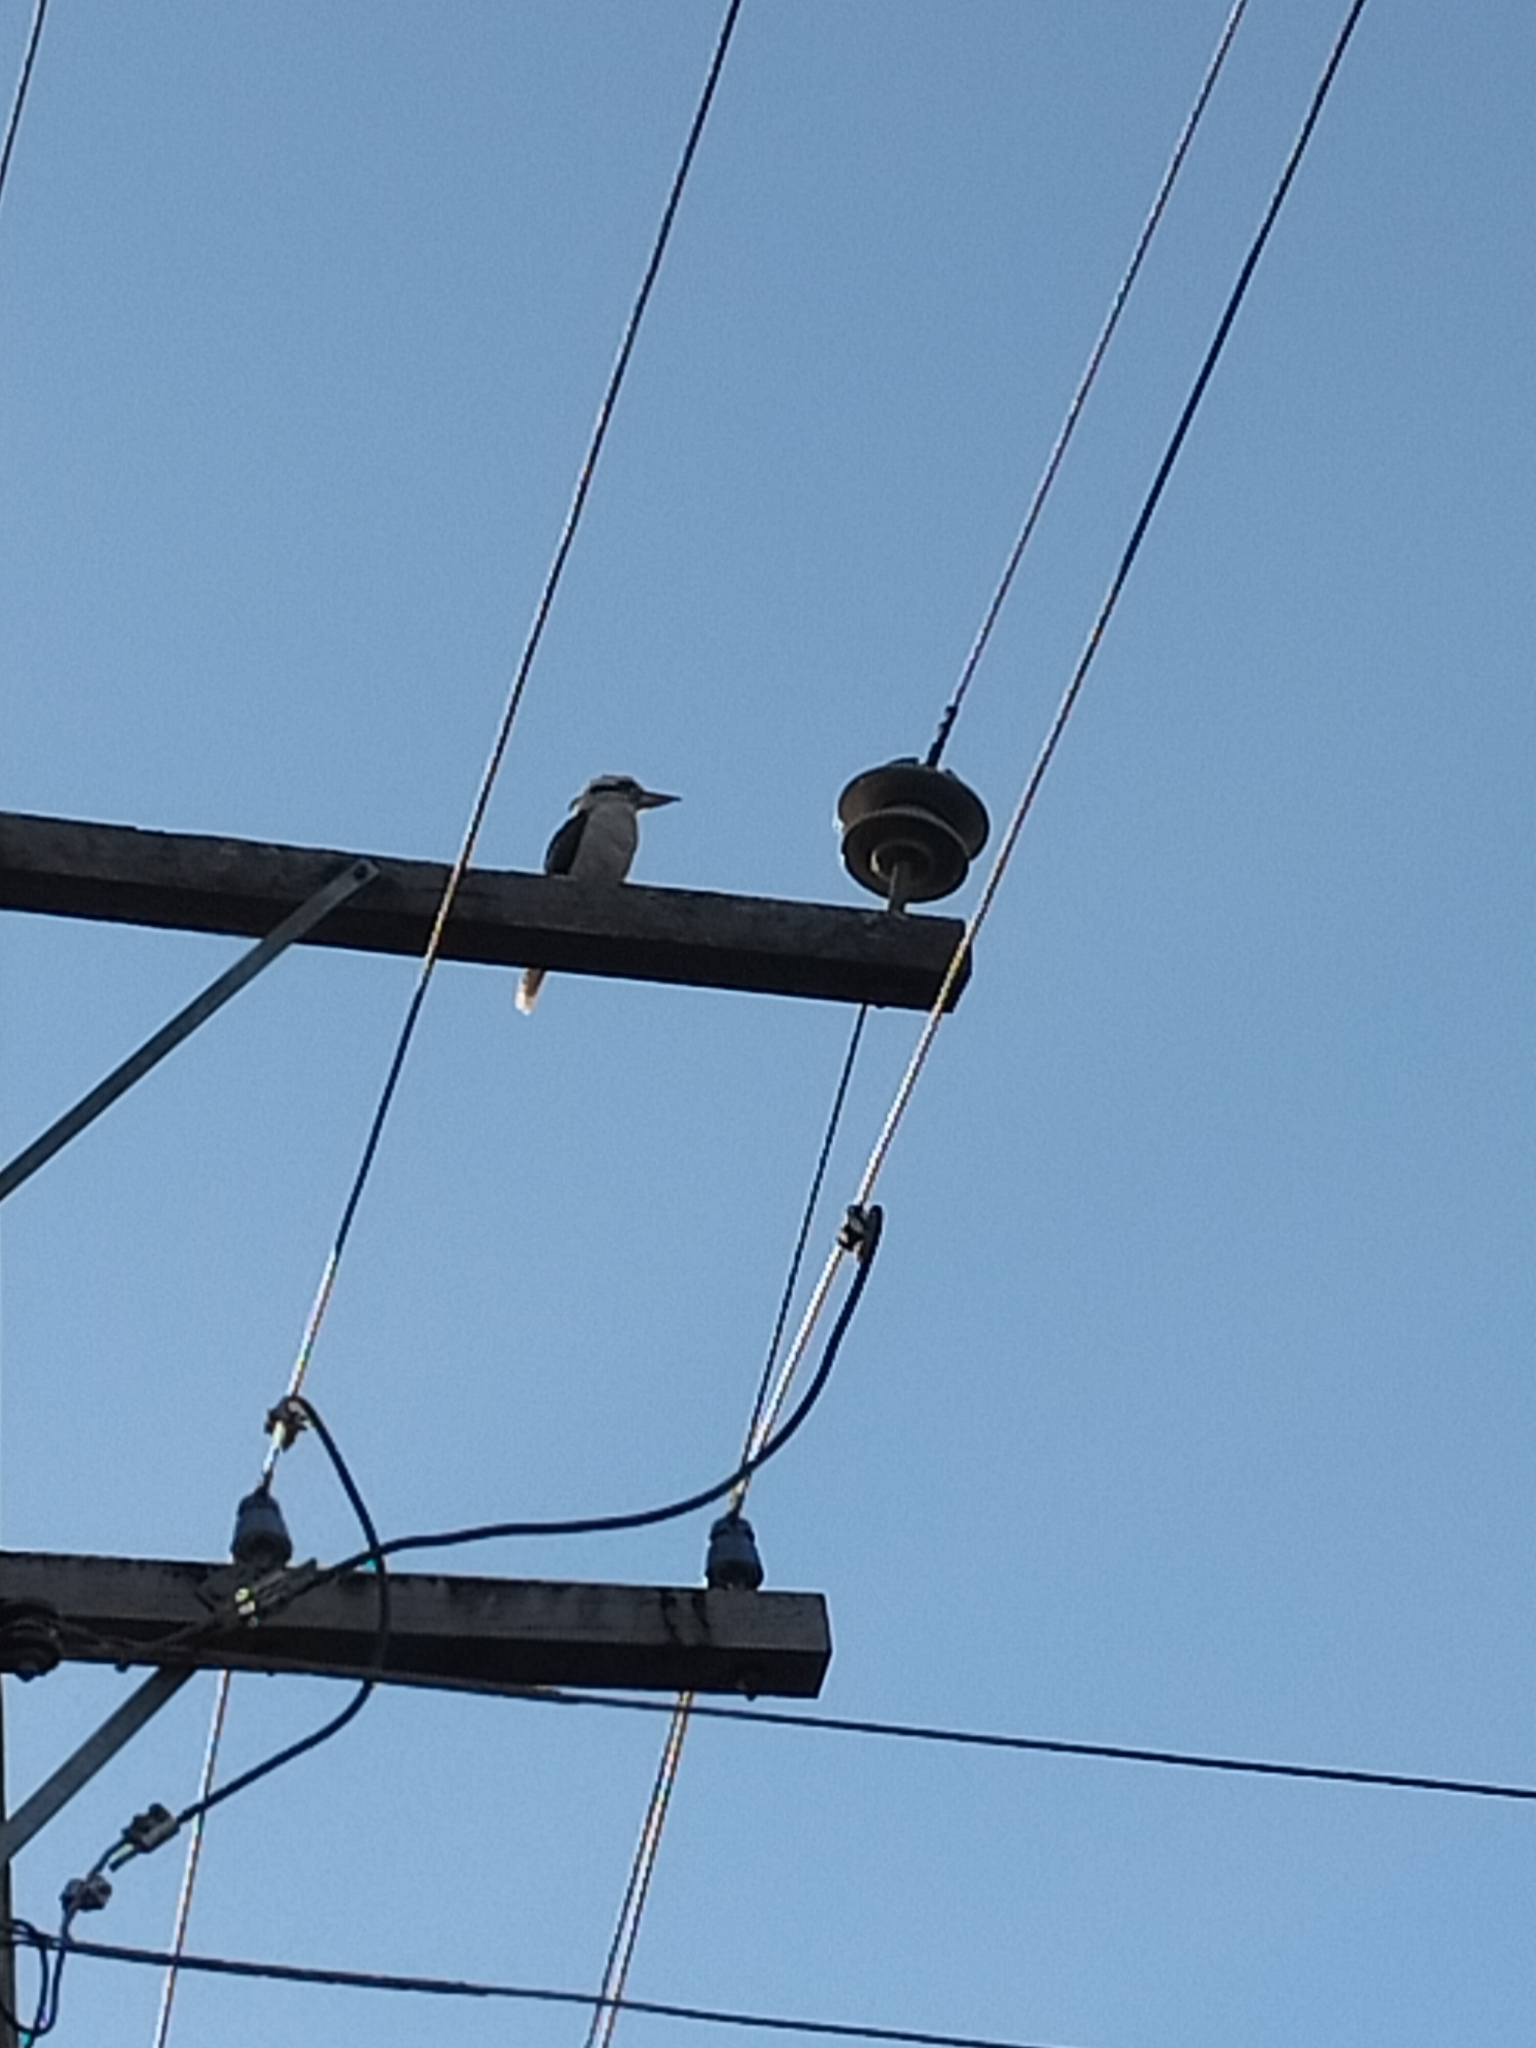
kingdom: Animalia
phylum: Chordata
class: Aves
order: Coraciiformes
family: Alcedinidae
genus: Dacelo
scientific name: Dacelo novaeguineae
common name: Laughing kookaburra
